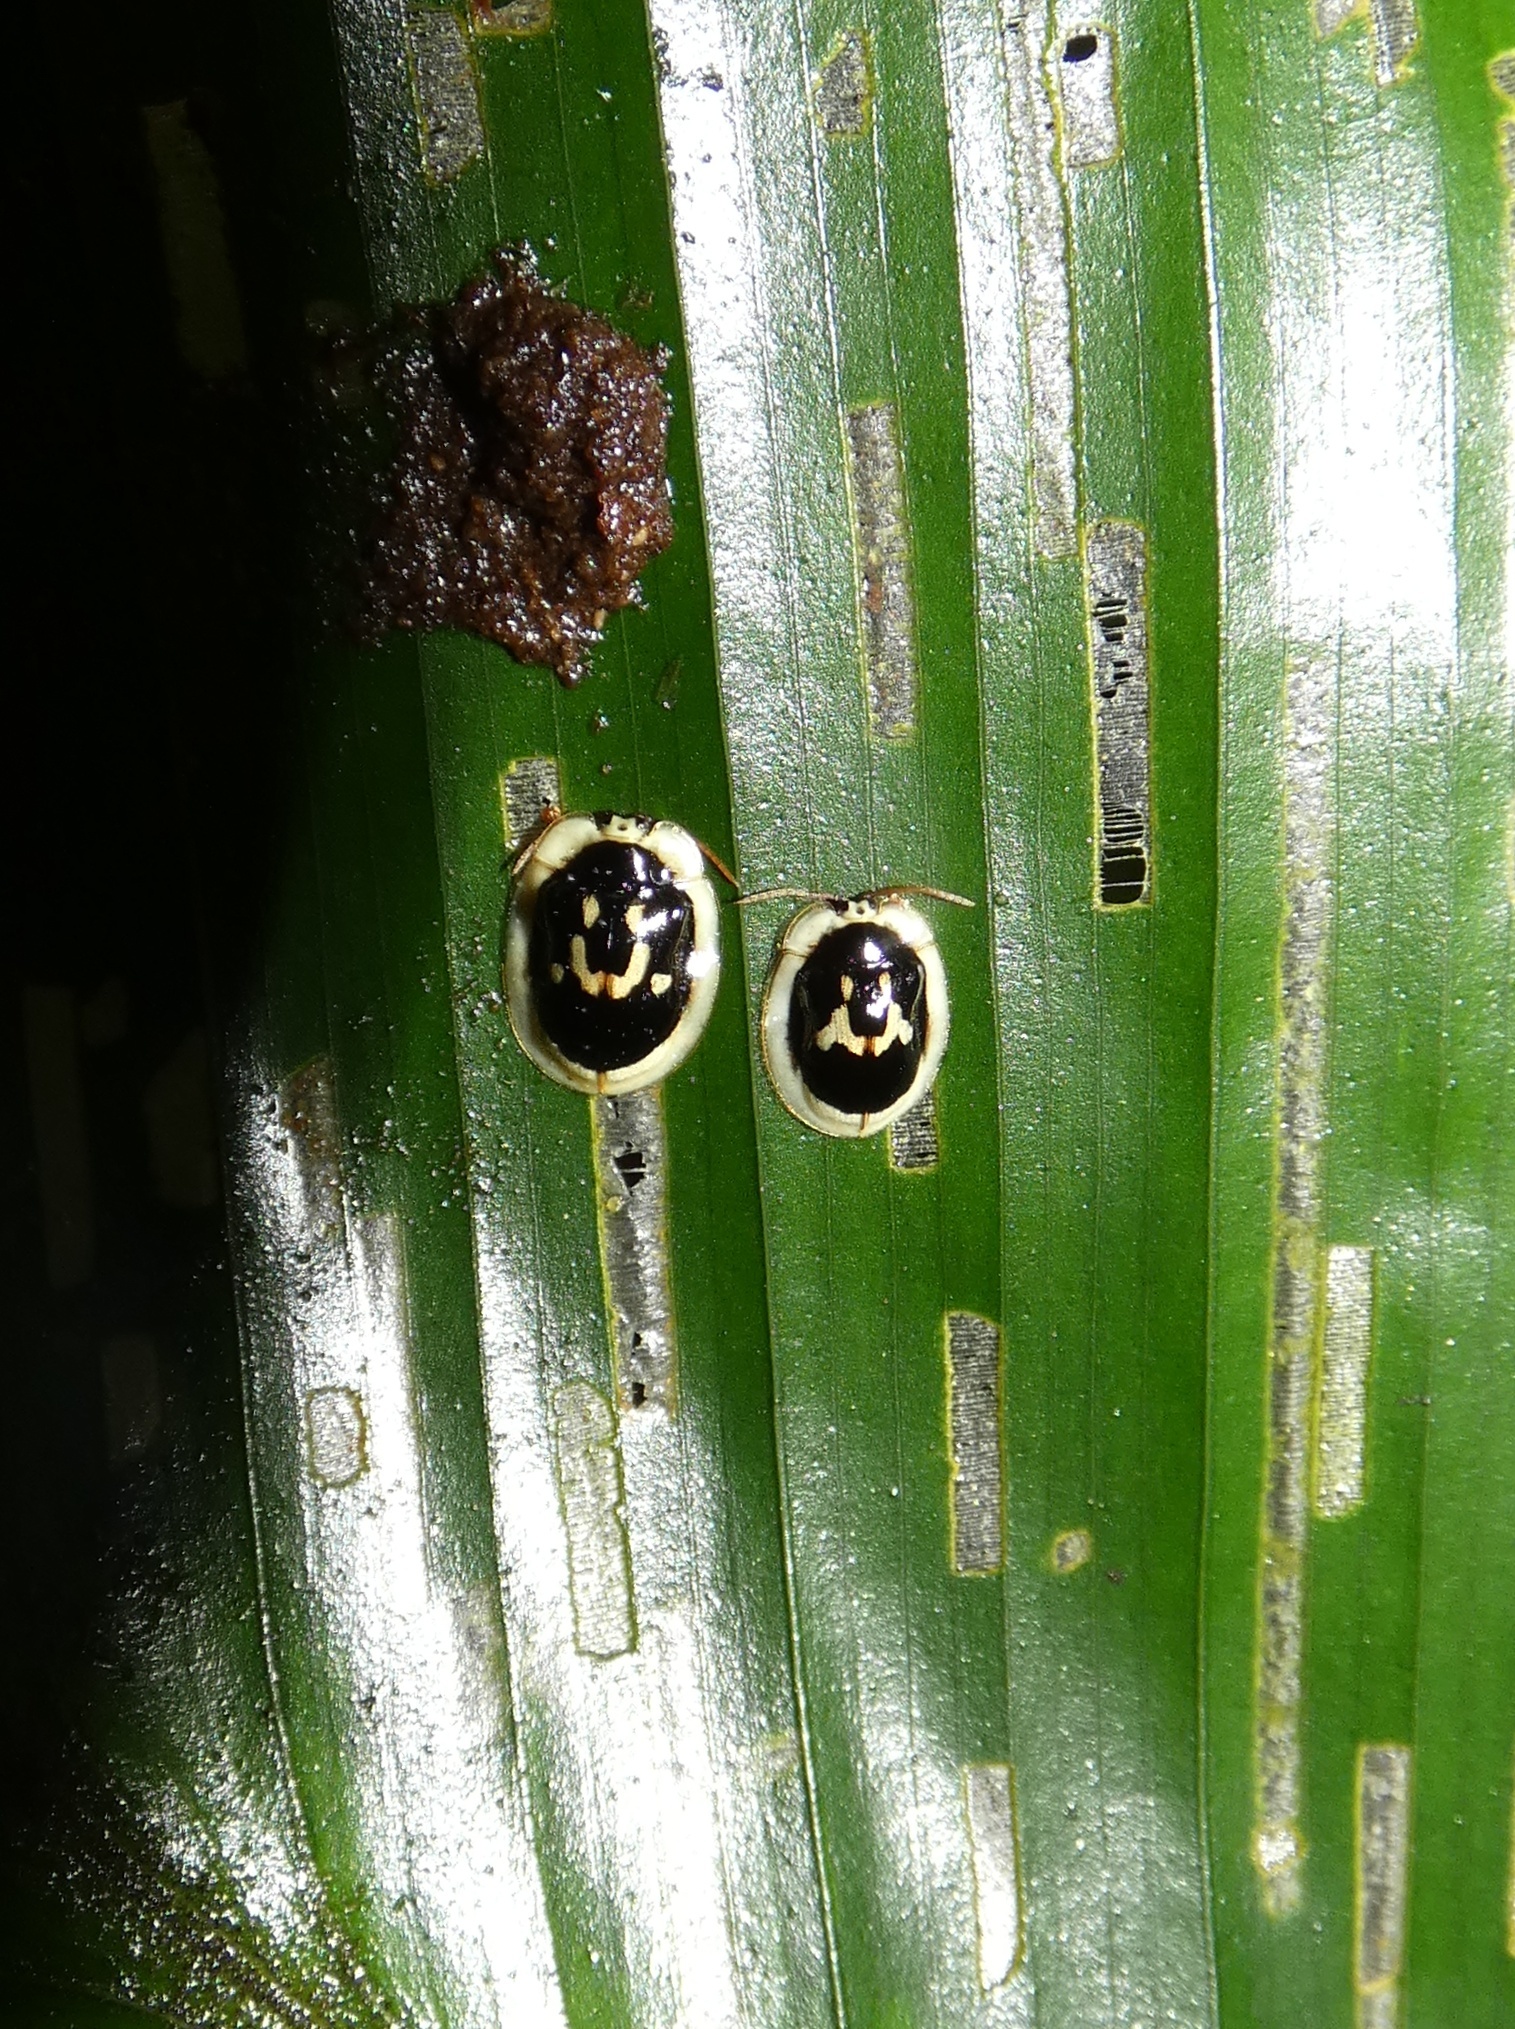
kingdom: Animalia
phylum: Arthropoda
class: Insecta
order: Coleoptera
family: Chrysomelidae
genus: Aslamidium
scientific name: Aslamidium semicirculare
